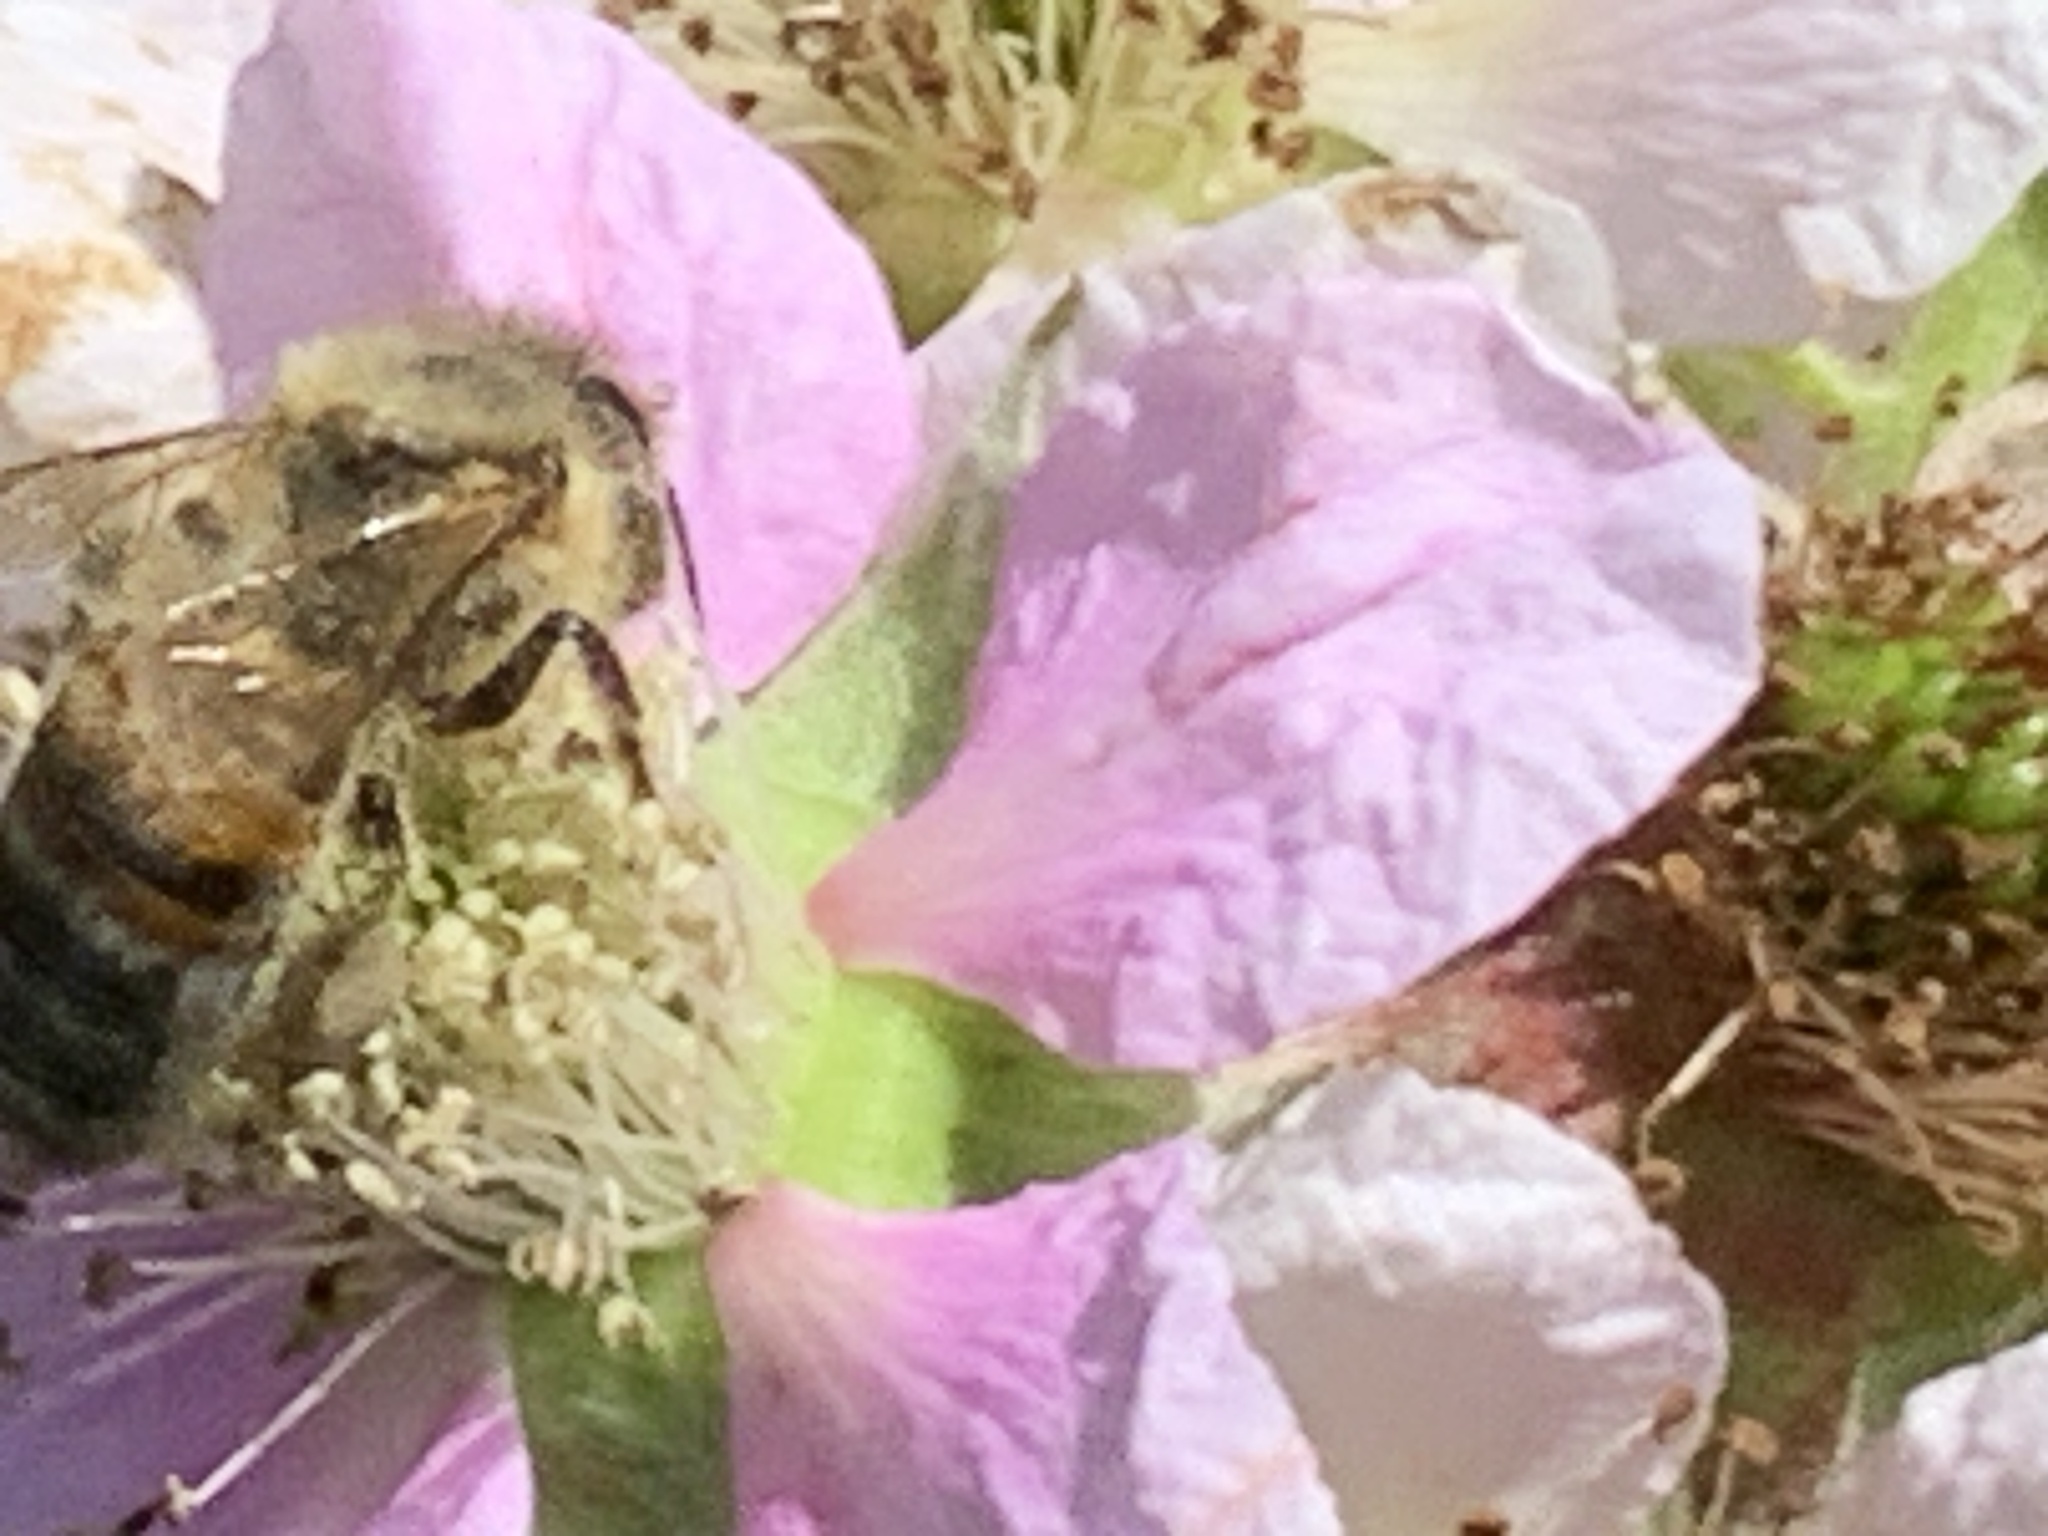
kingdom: Animalia
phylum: Arthropoda
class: Insecta
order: Hymenoptera
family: Apidae
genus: Apis
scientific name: Apis mellifera
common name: Honey bee
